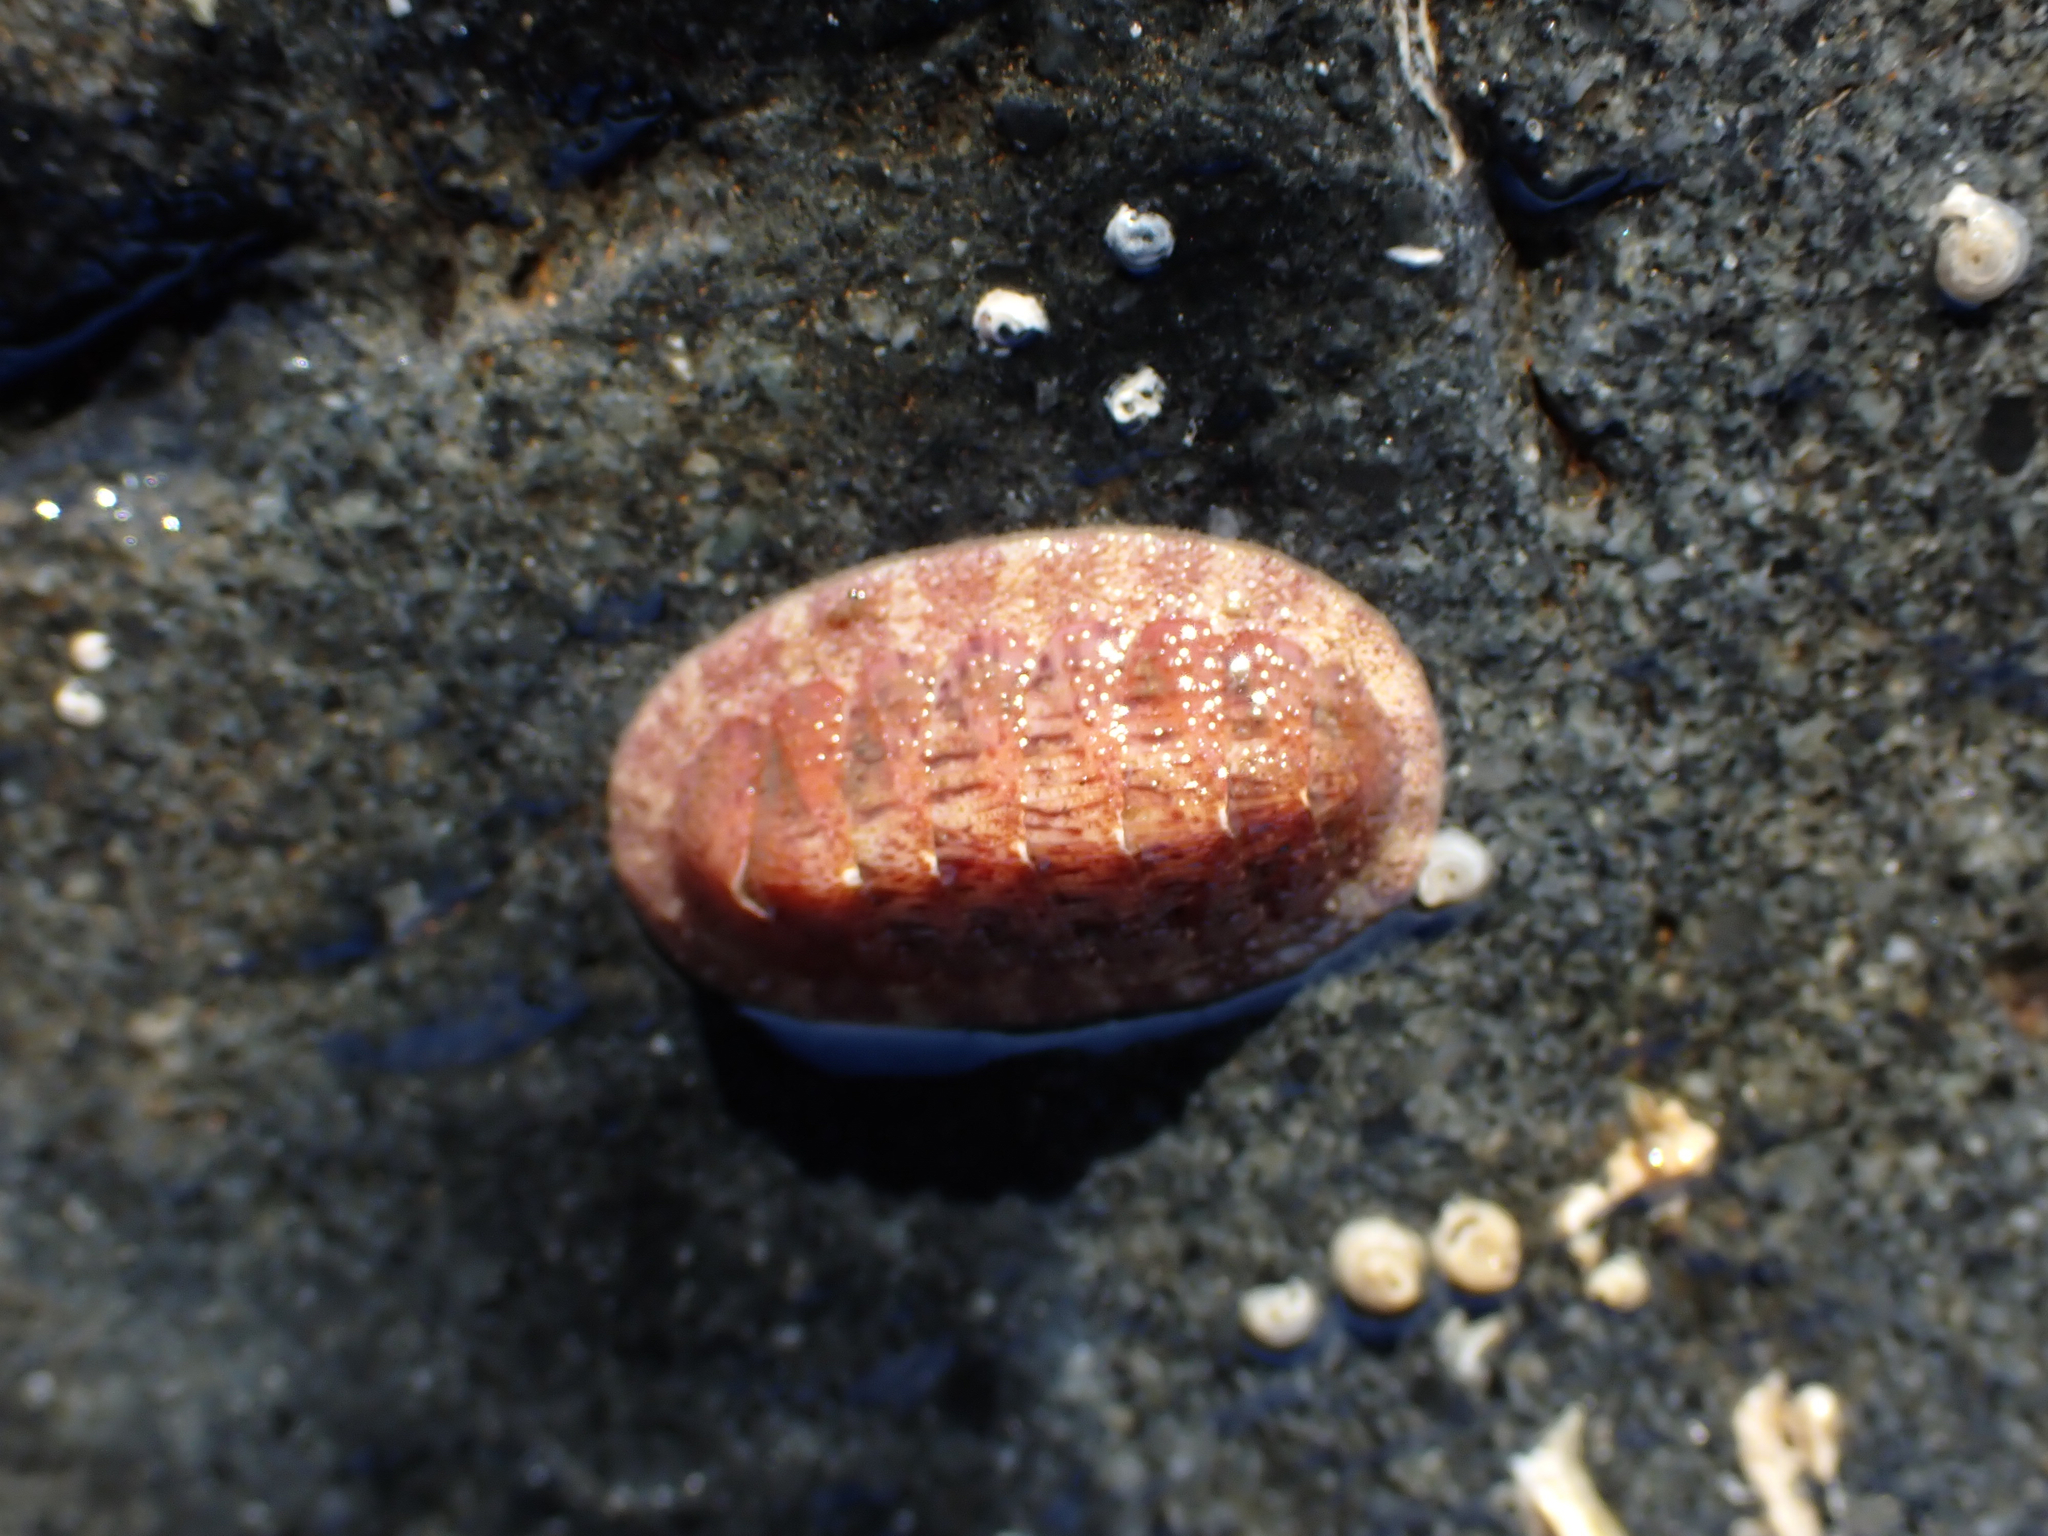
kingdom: Animalia
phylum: Mollusca
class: Polyplacophora
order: Chitonida
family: Ischnochitonidae
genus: Lepidozona
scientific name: Lepidozona mertensii
